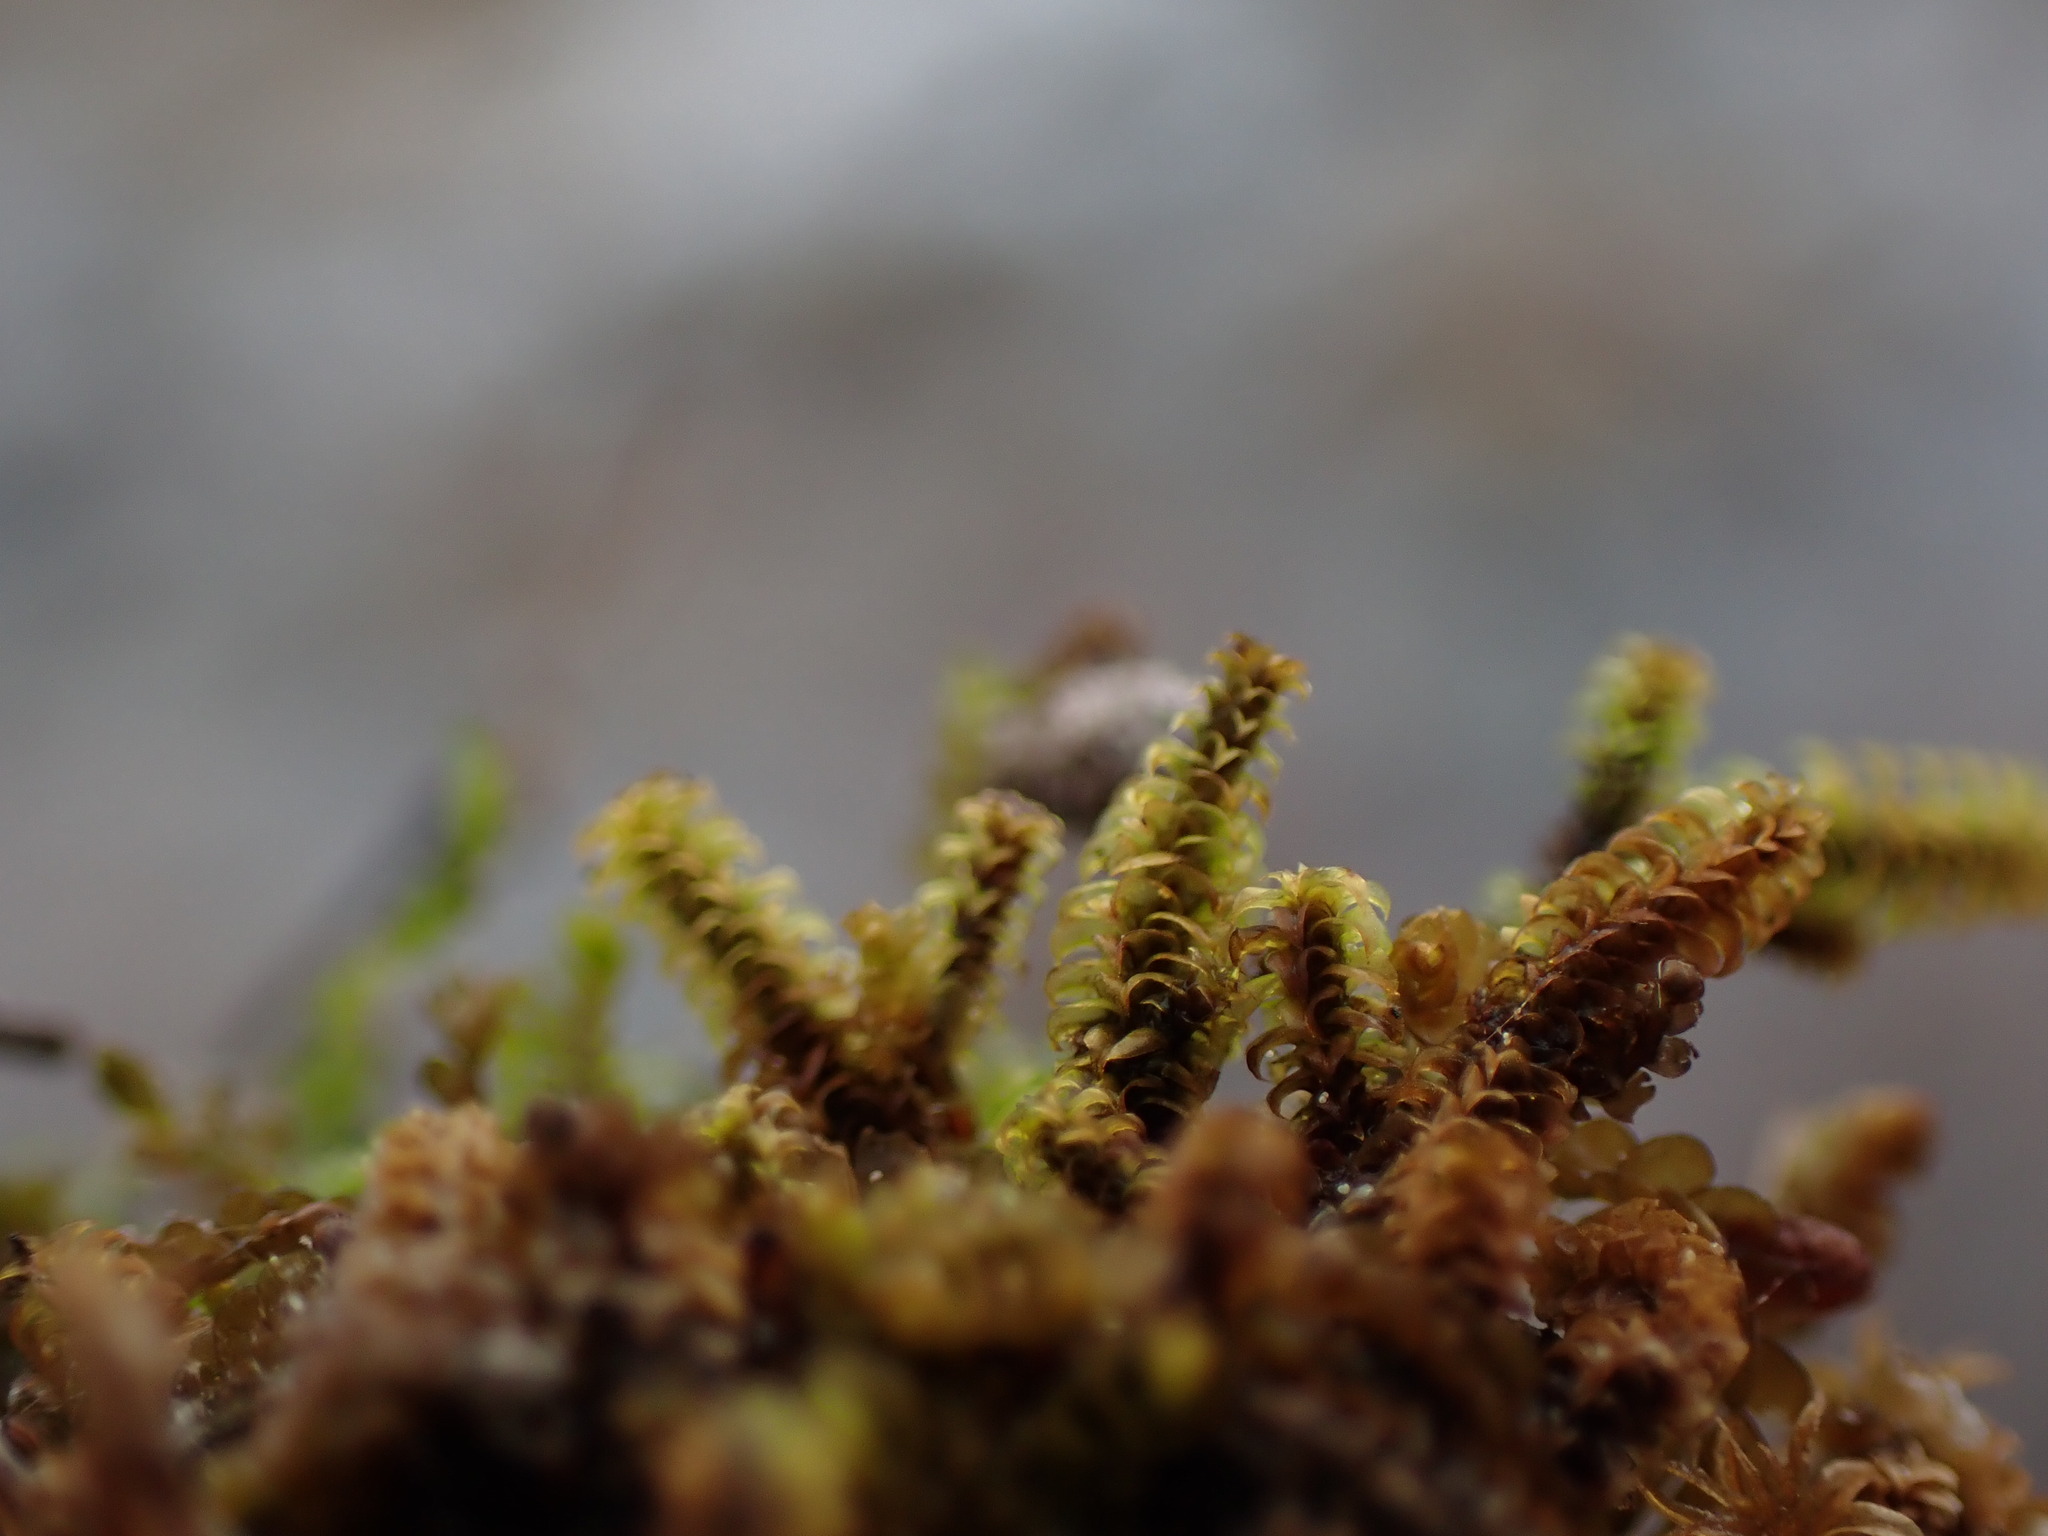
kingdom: Plantae
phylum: Bryophyta
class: Bryopsida
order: Splachnales
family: Meesiaceae
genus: Paludella
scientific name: Paludella squarrosa
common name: Tufted fen moss
